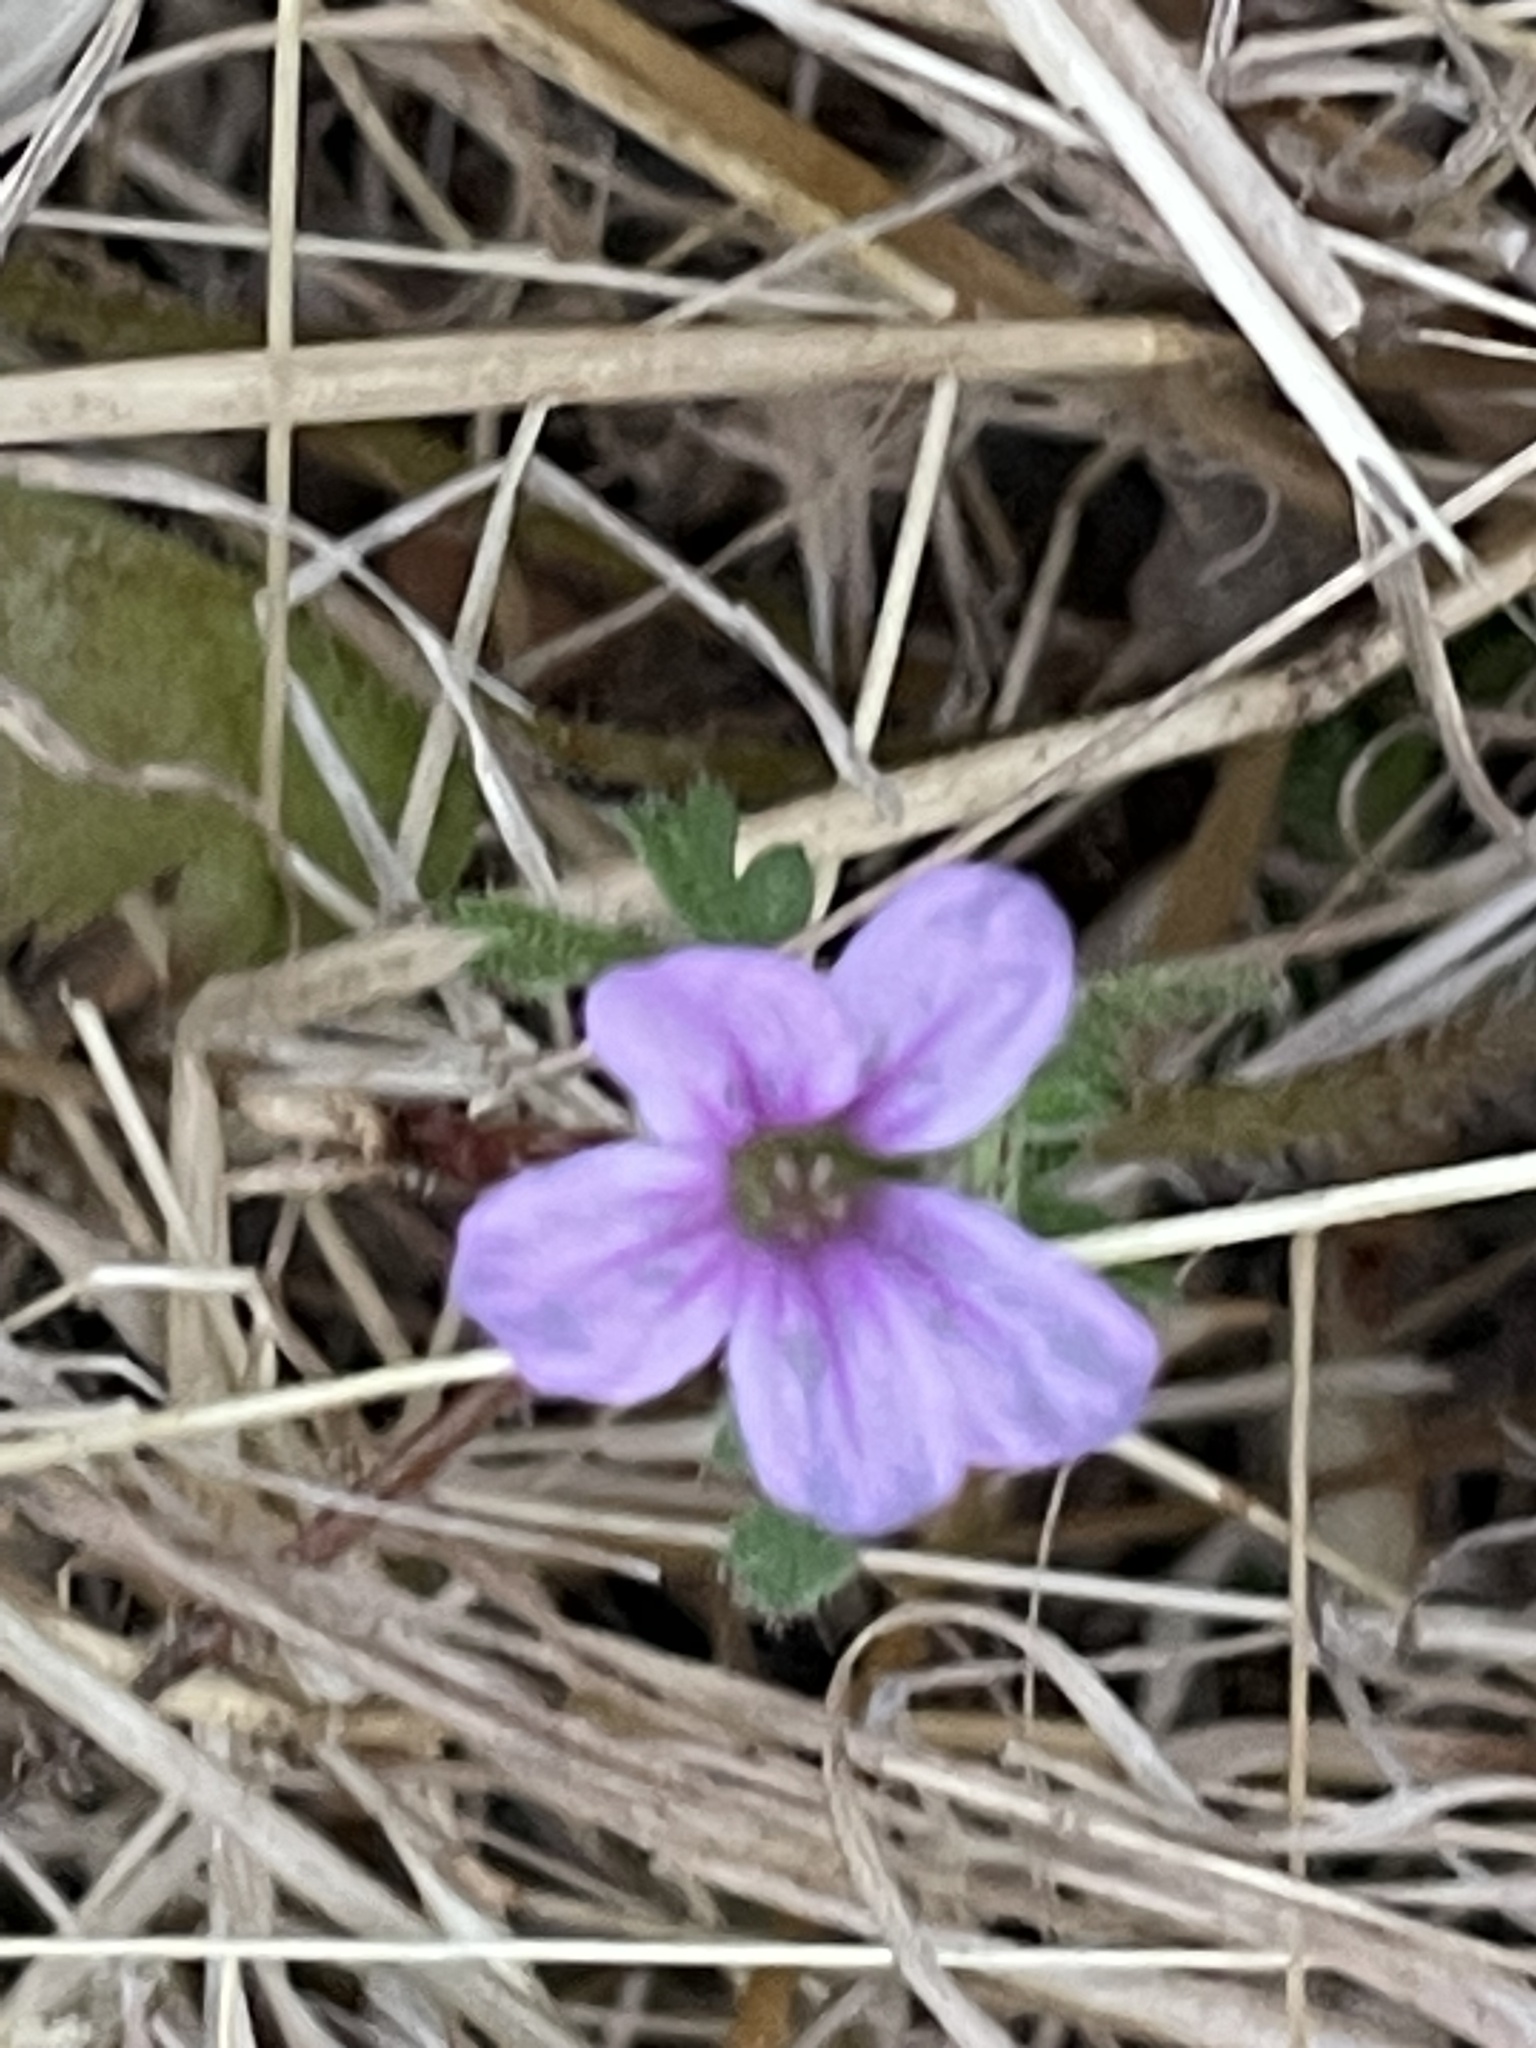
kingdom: Plantae
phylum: Tracheophyta
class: Magnoliopsida
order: Geraniales
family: Geraniaceae
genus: Erodium
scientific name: Erodium botrys
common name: Mediterranean stork's-bill
